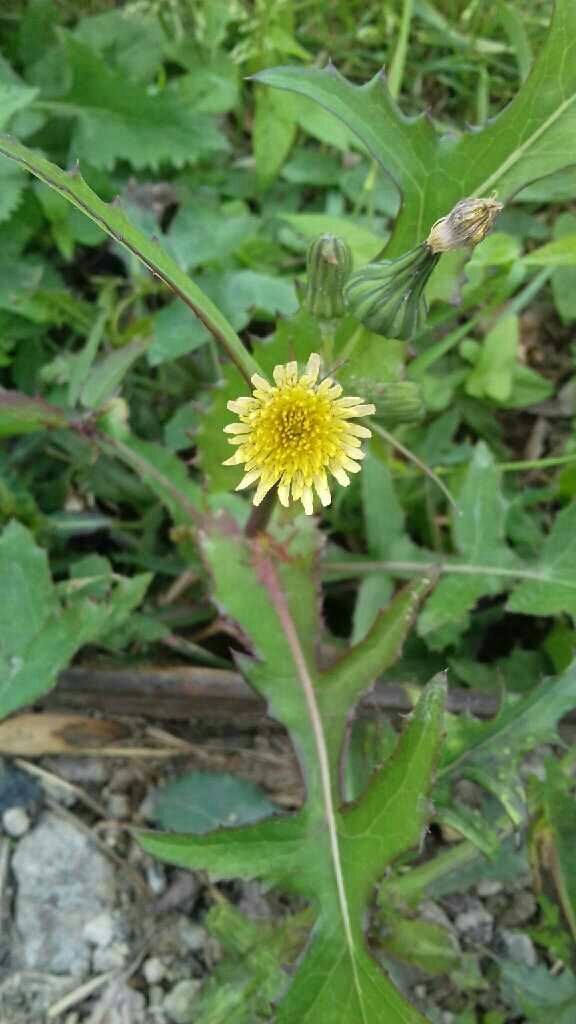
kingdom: Plantae
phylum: Tracheophyta
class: Magnoliopsida
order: Asterales
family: Asteraceae
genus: Sonchus
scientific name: Sonchus oleraceus
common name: Common sowthistle
